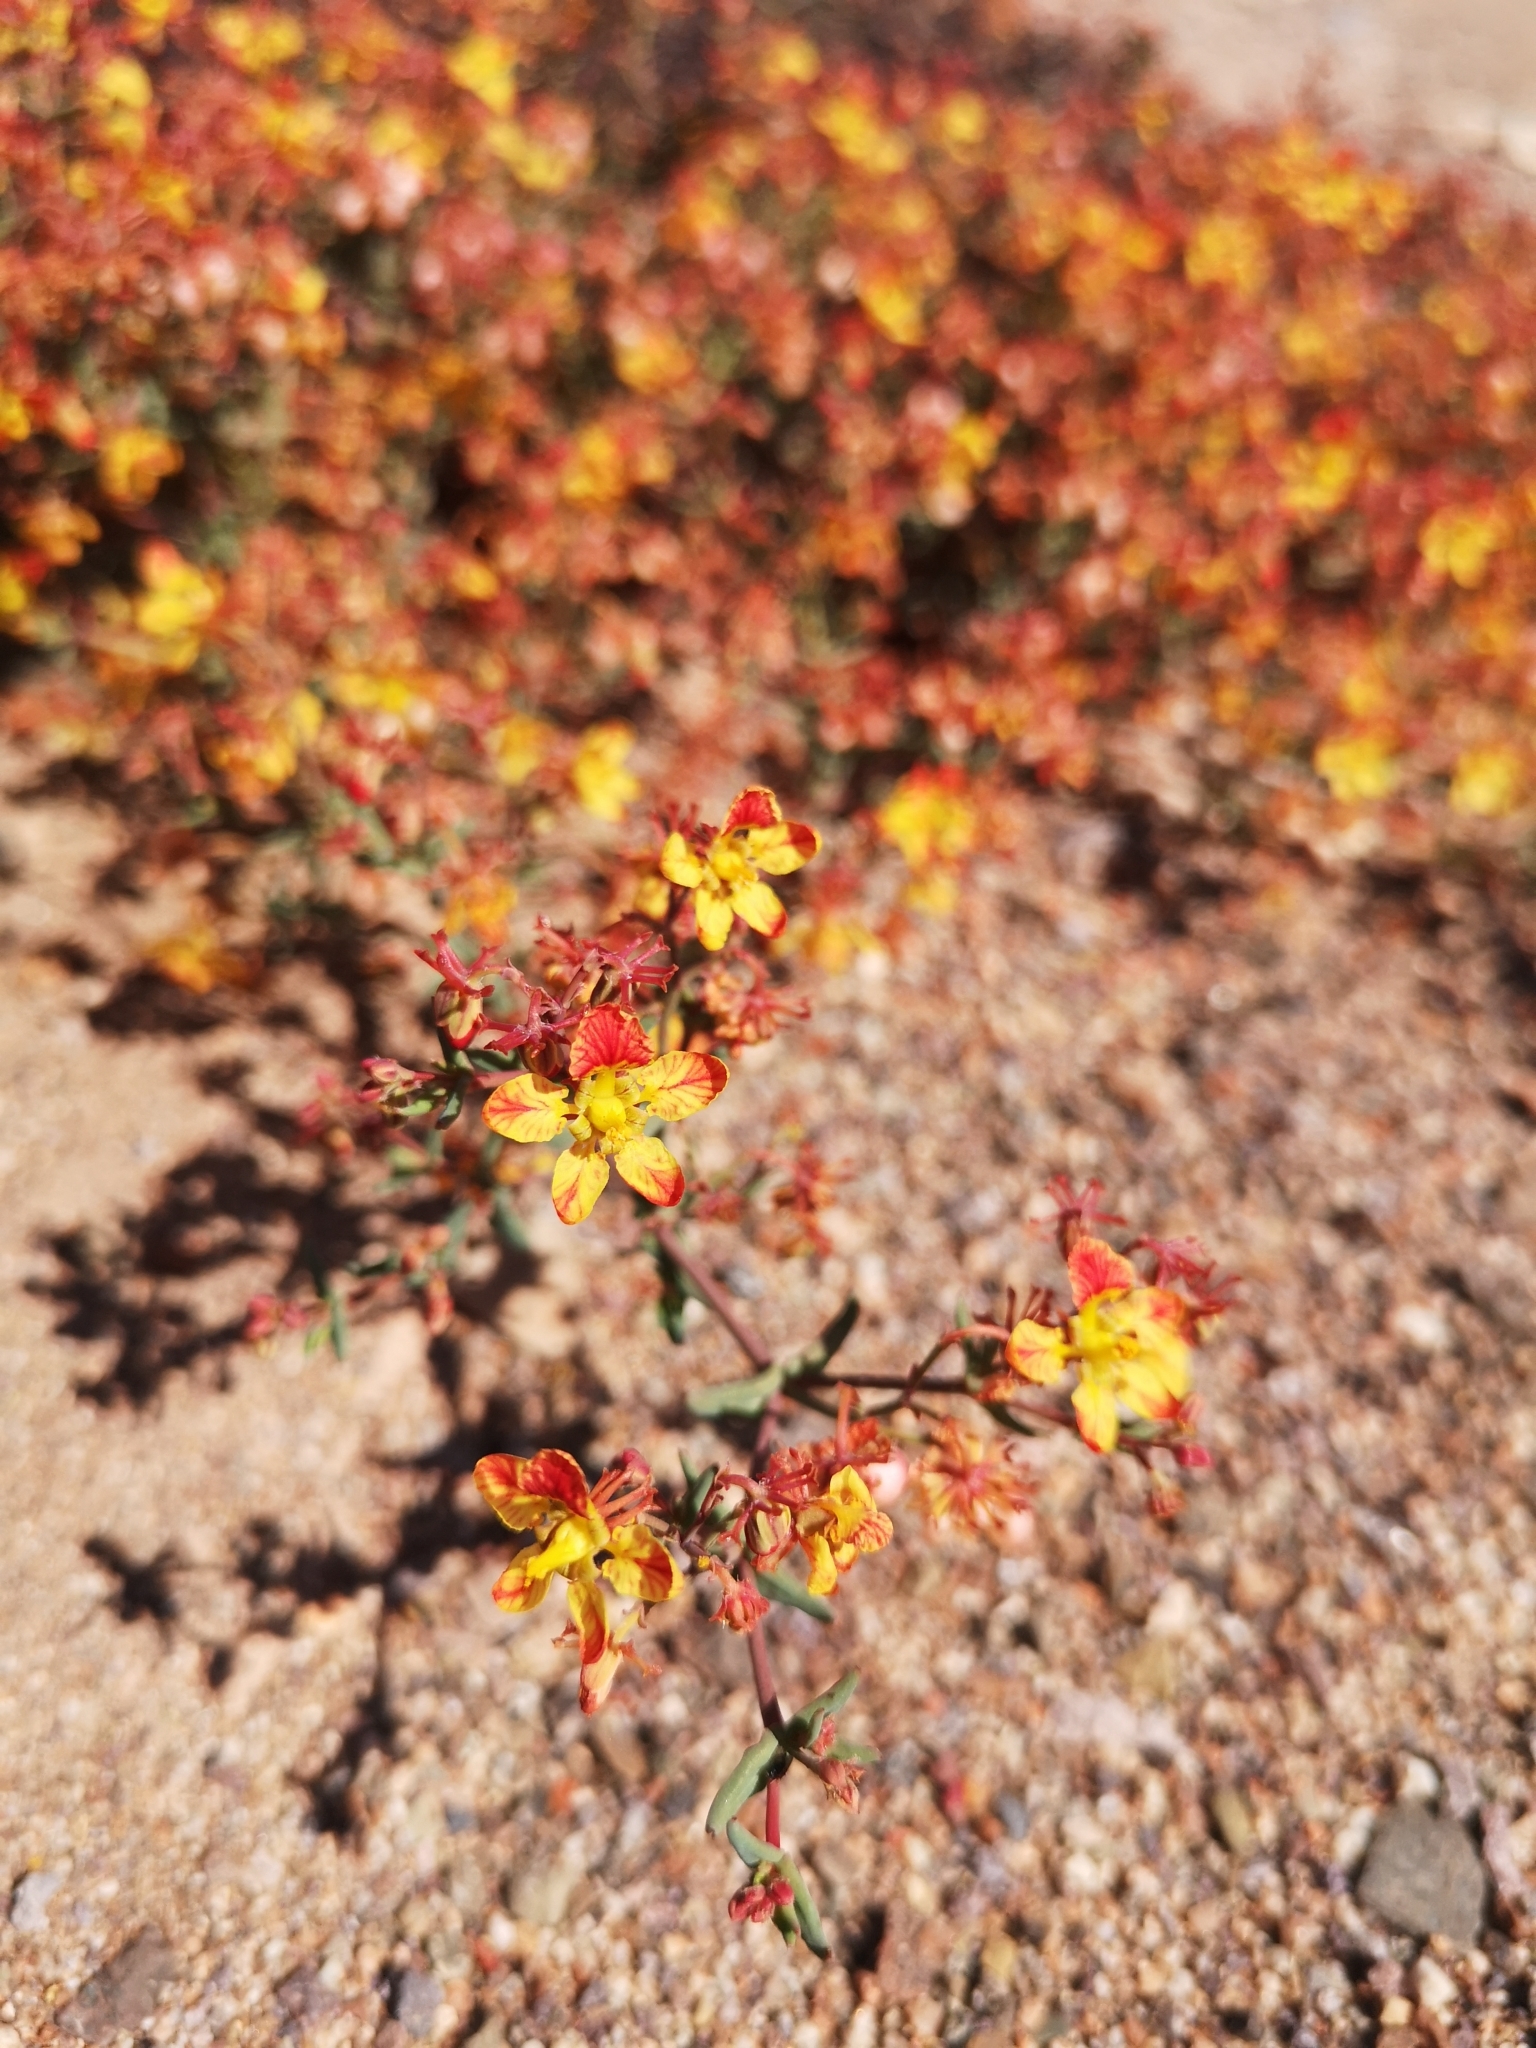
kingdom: Plantae
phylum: Tracheophyta
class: Magnoliopsida
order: Malpighiales
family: Malpighiaceae
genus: Dinemandra
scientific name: Dinemandra ericoides
